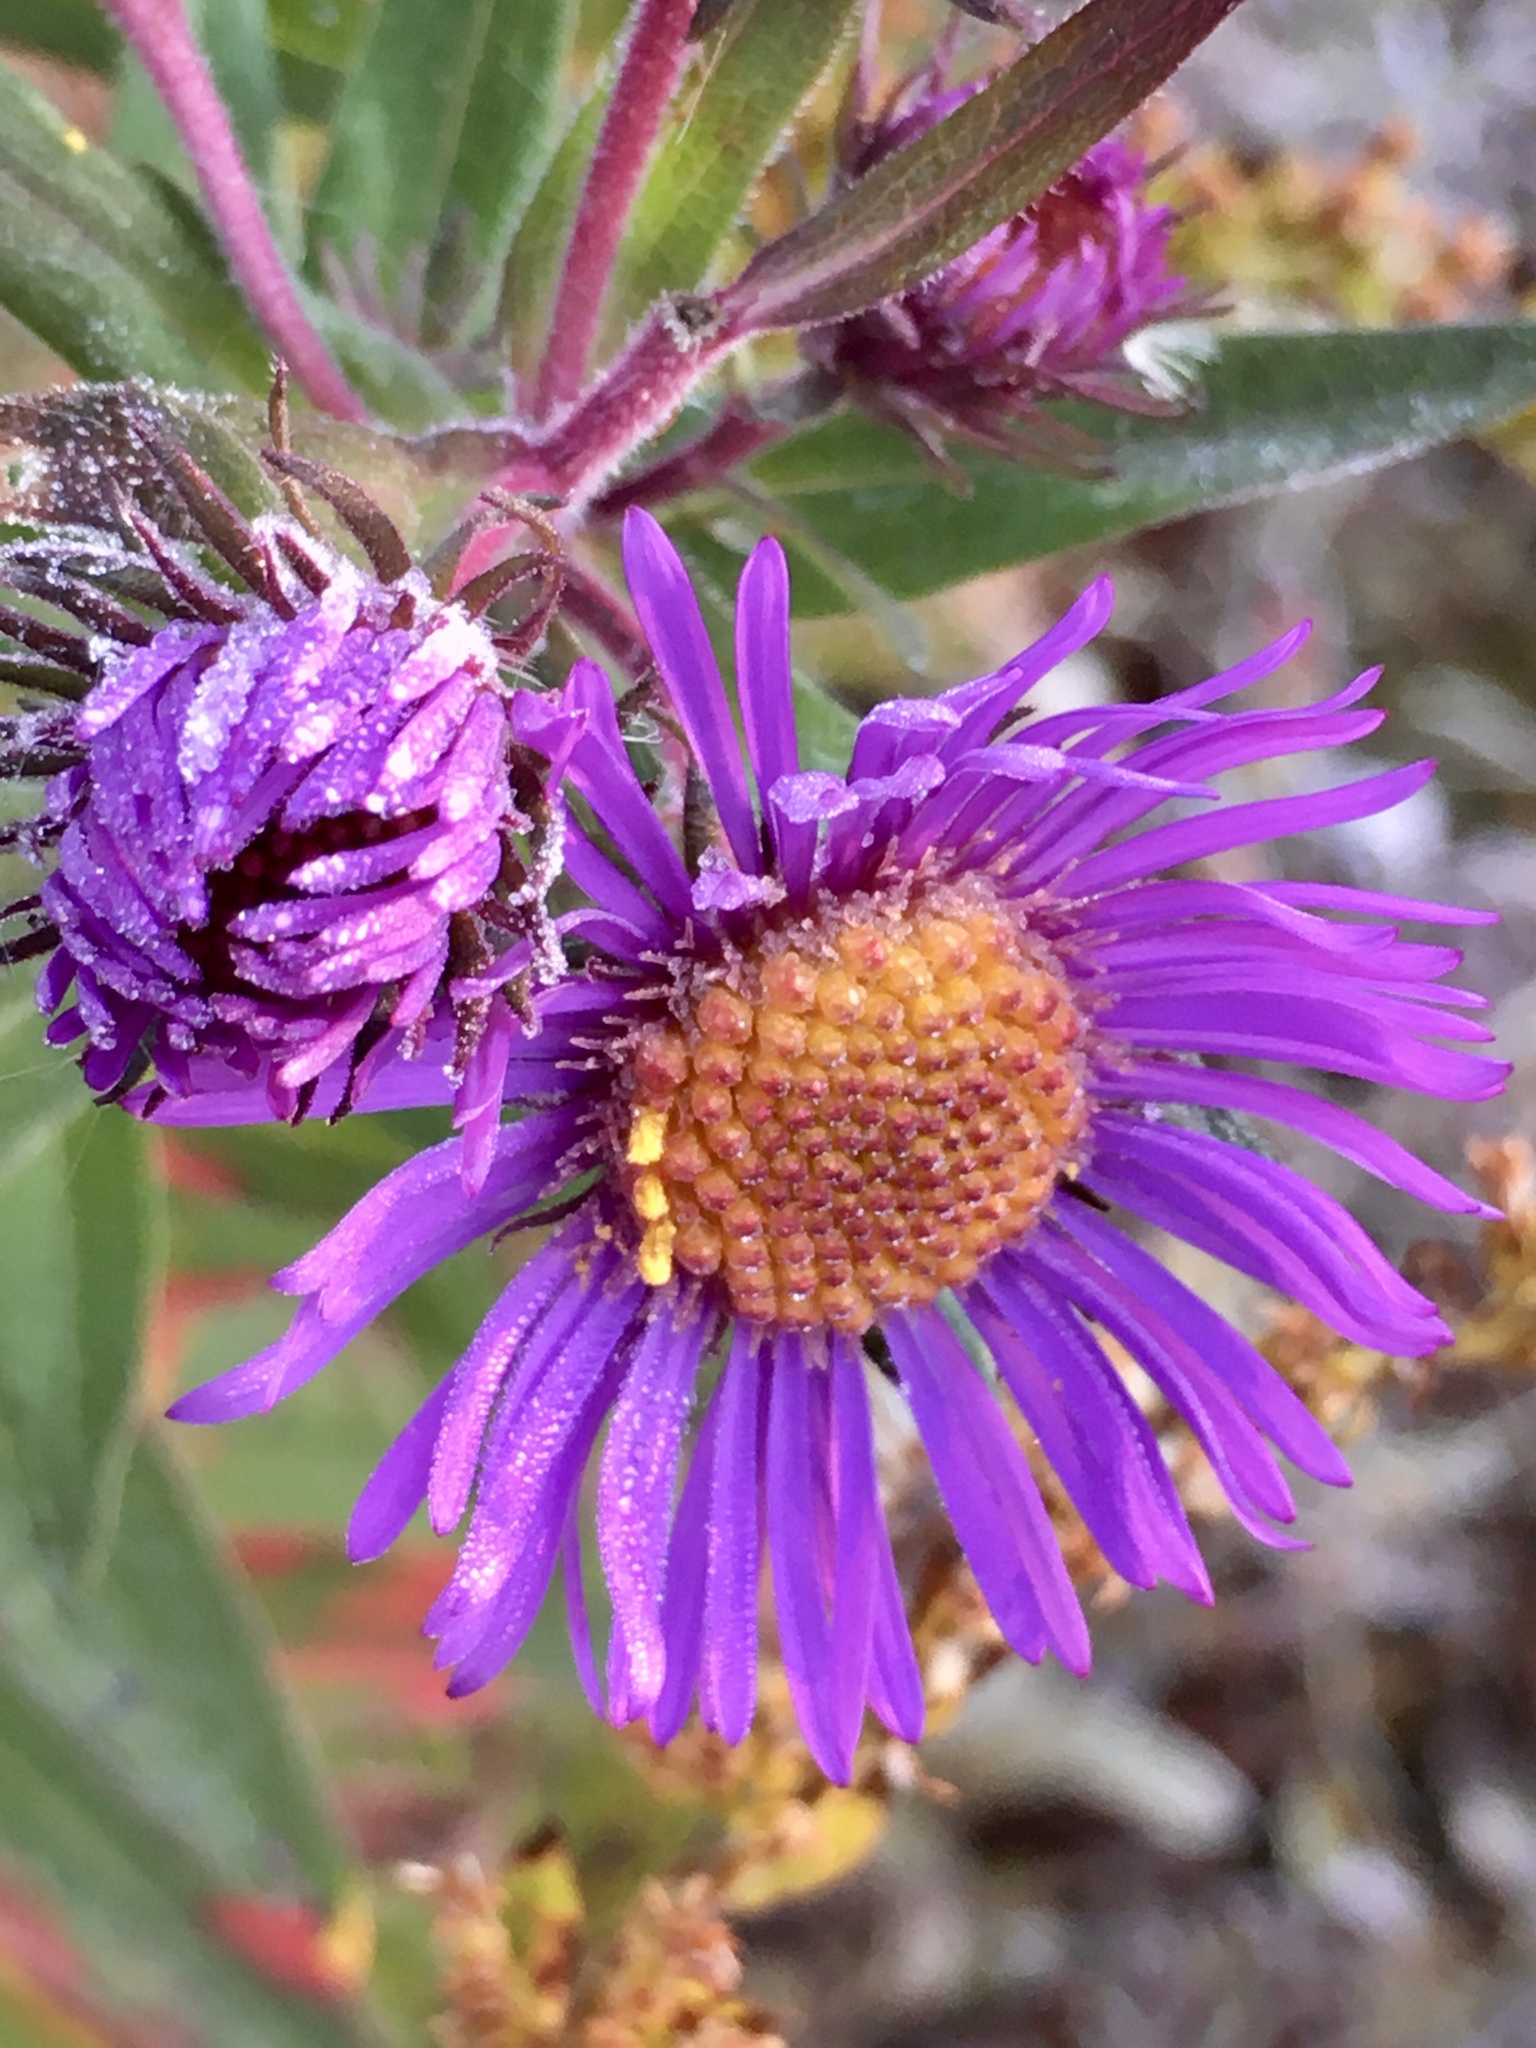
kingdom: Plantae
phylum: Tracheophyta
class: Magnoliopsida
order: Asterales
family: Asteraceae
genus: Symphyotrichum
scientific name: Symphyotrichum novae-angliae
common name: Michaelmas daisy
